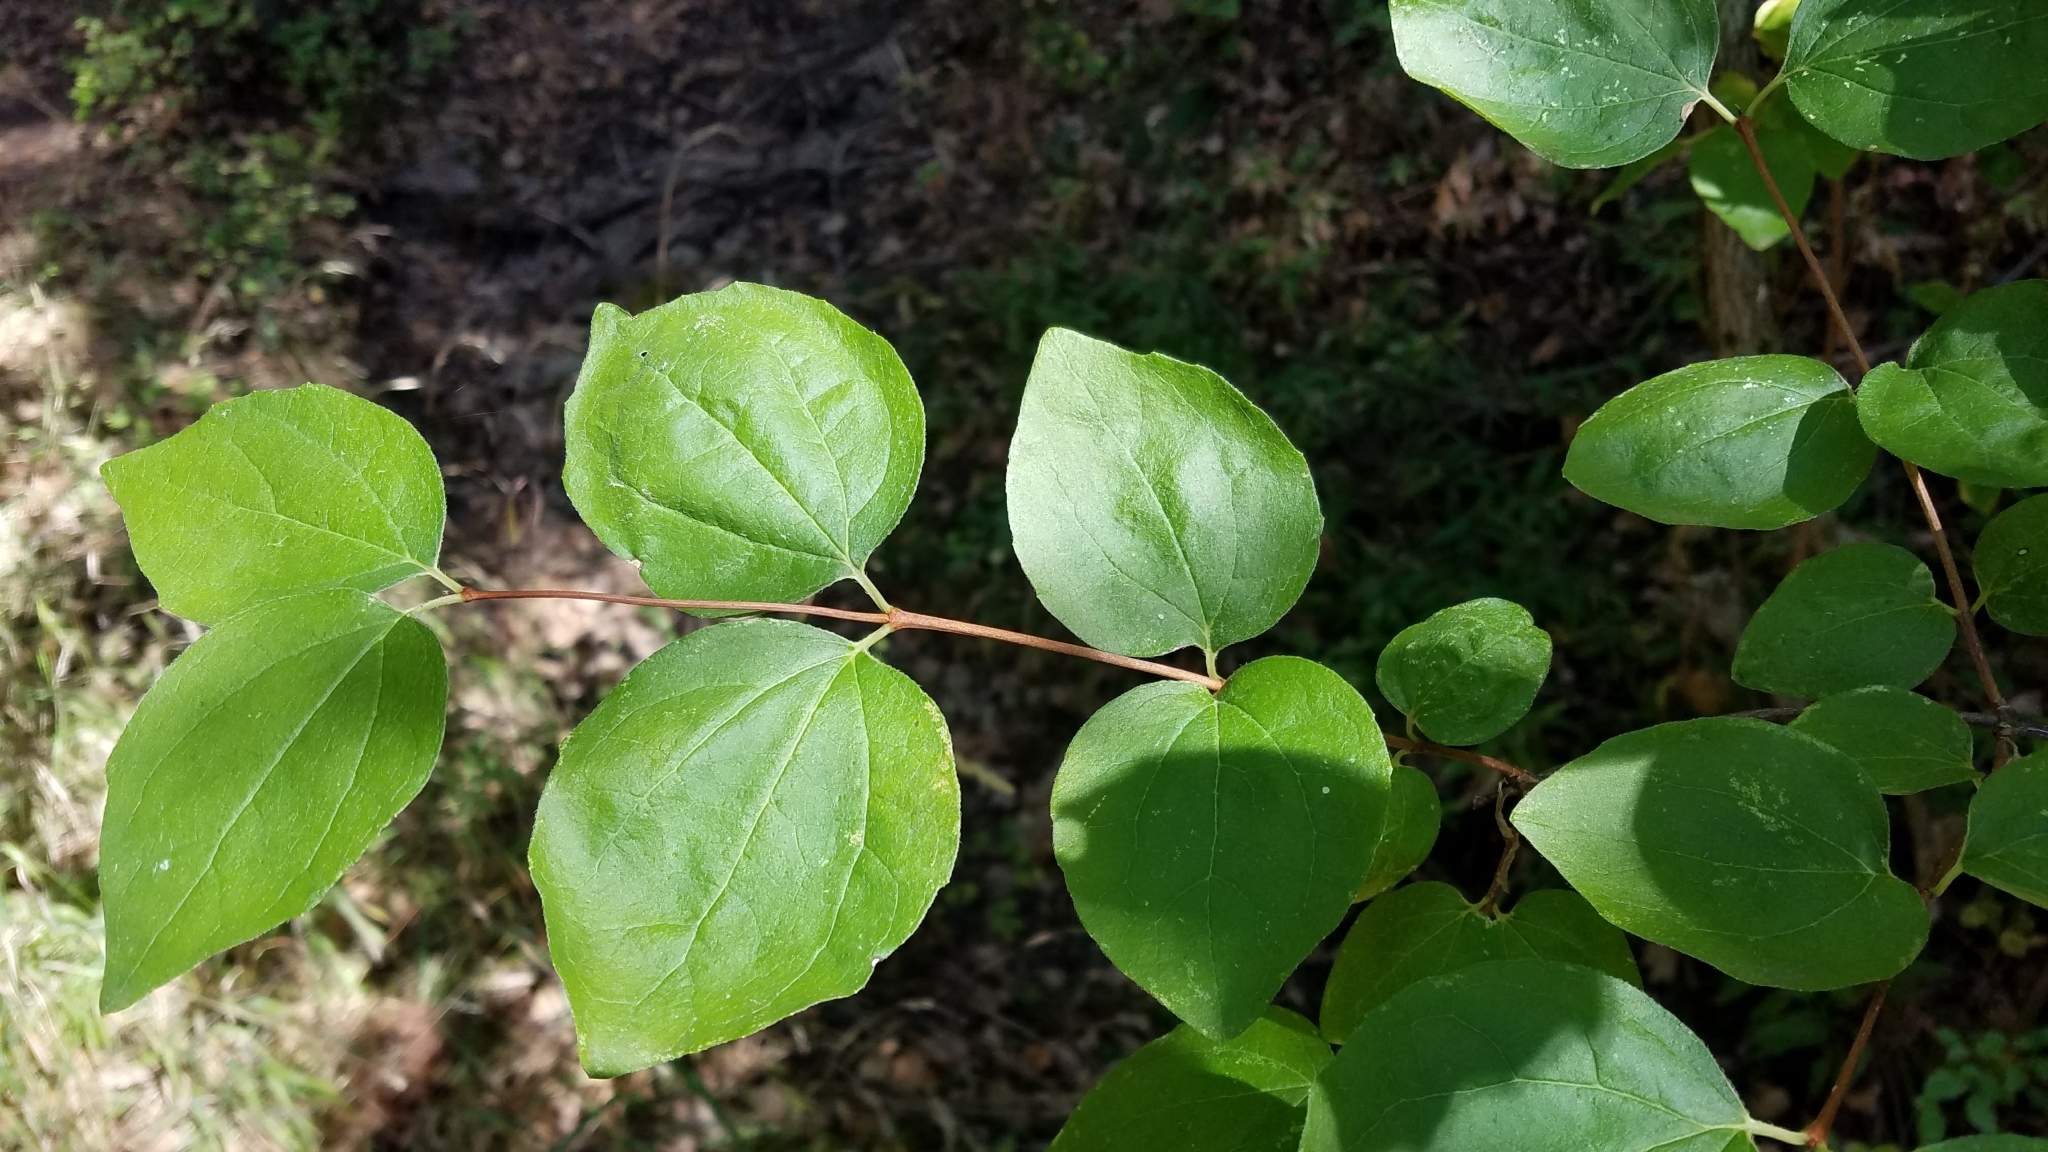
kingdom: Plantae
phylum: Tracheophyta
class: Magnoliopsida
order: Cornales
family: Hydrangeaceae
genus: Philadelphus
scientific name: Philadelphus lewisii
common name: Lewis's mock orange
